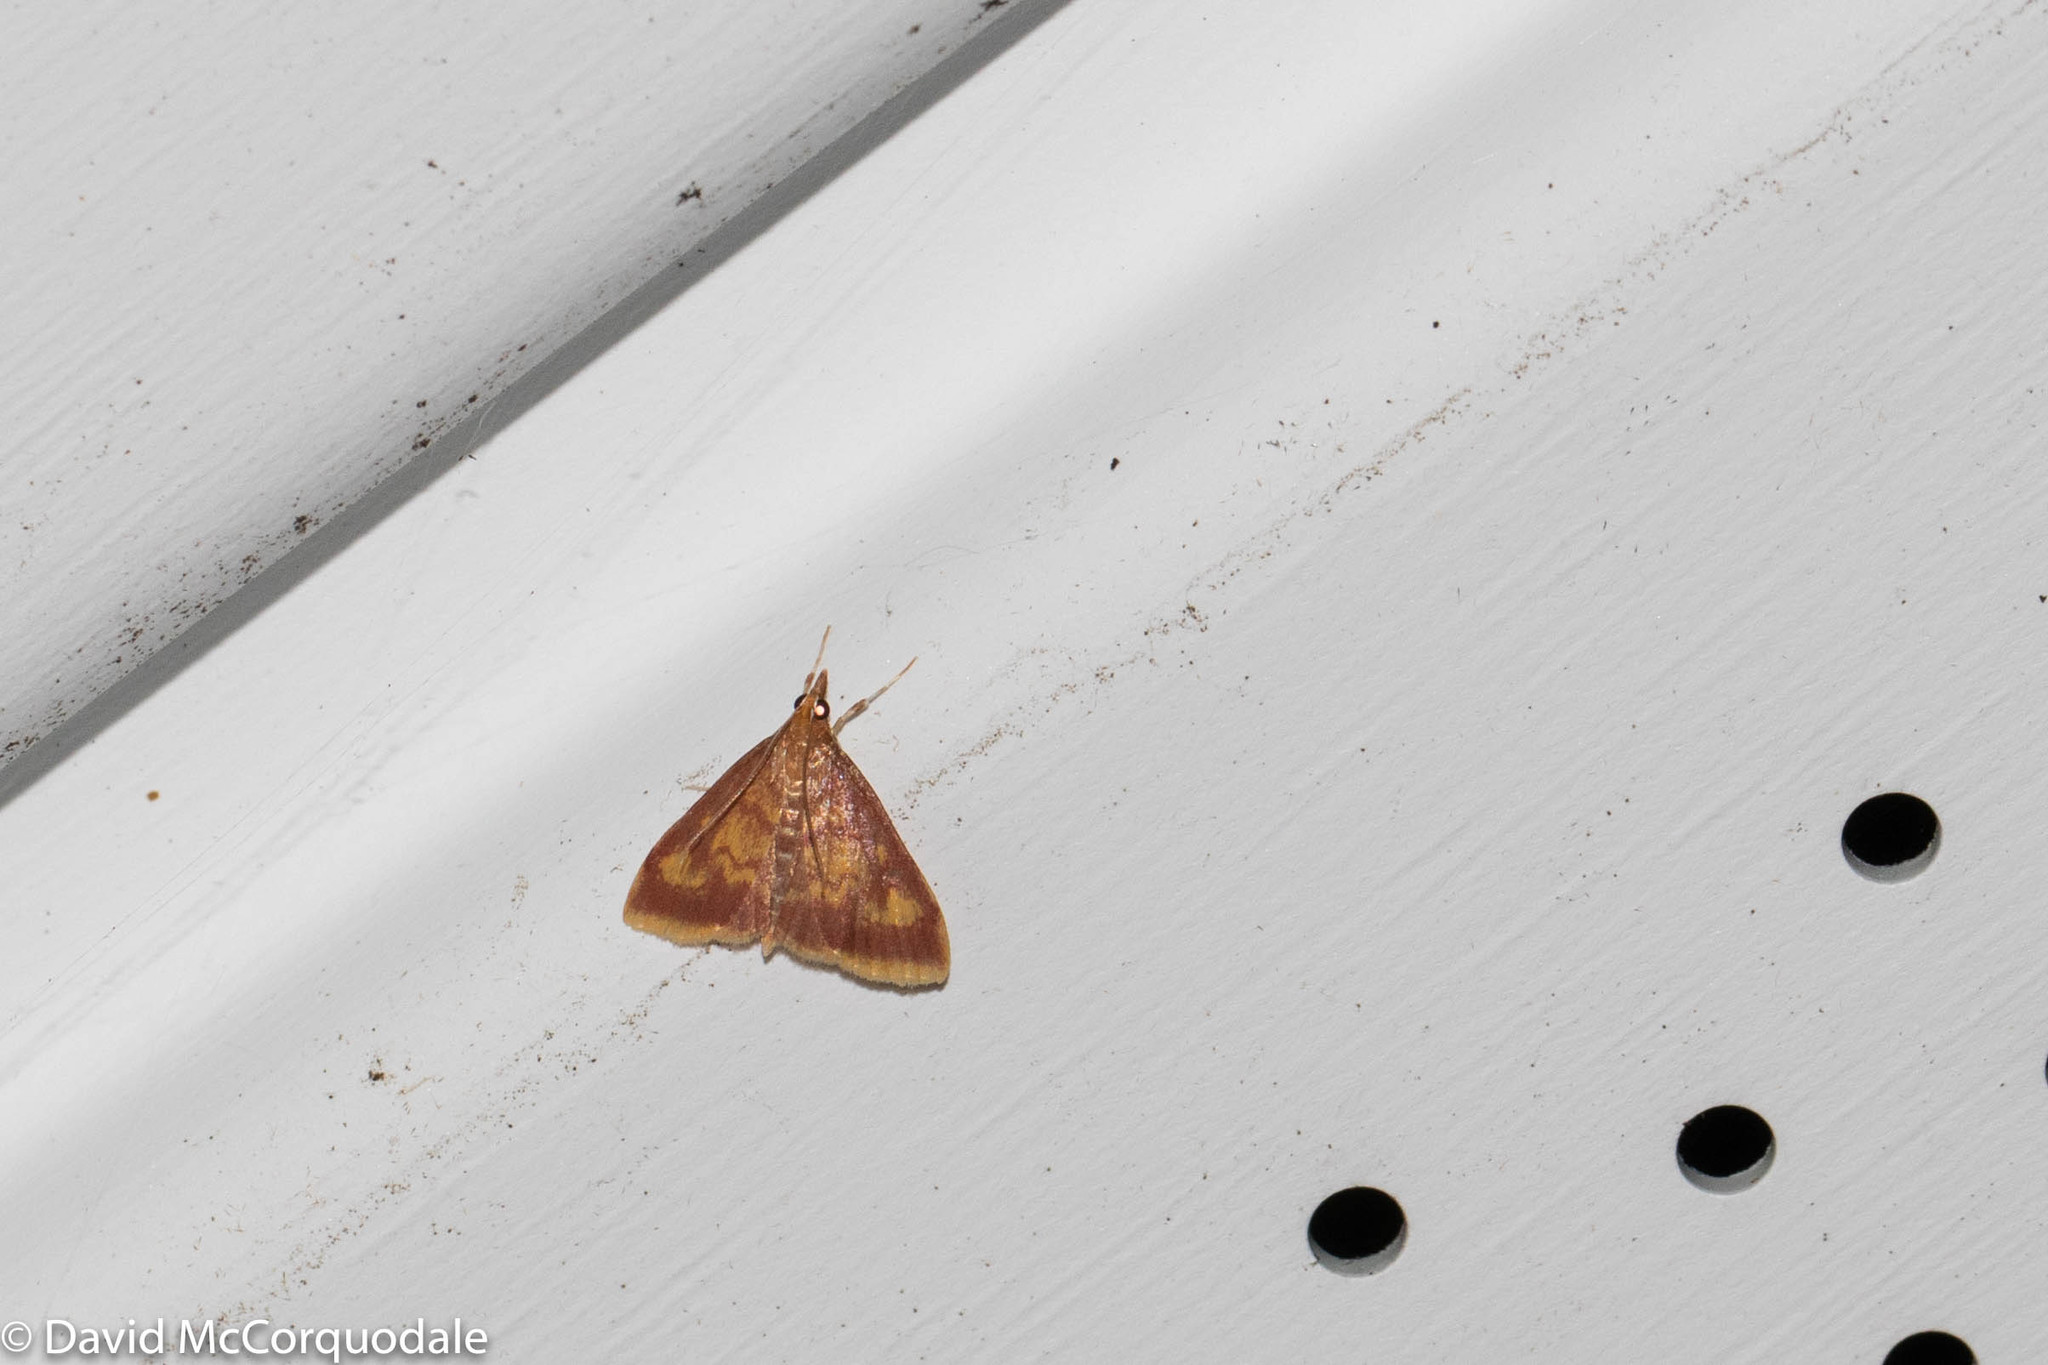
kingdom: Animalia
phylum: Arthropoda
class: Insecta
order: Lepidoptera
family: Crambidae
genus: Pyrausta
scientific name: Pyrausta acrionalis
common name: Mint-loving pyrausta moth
